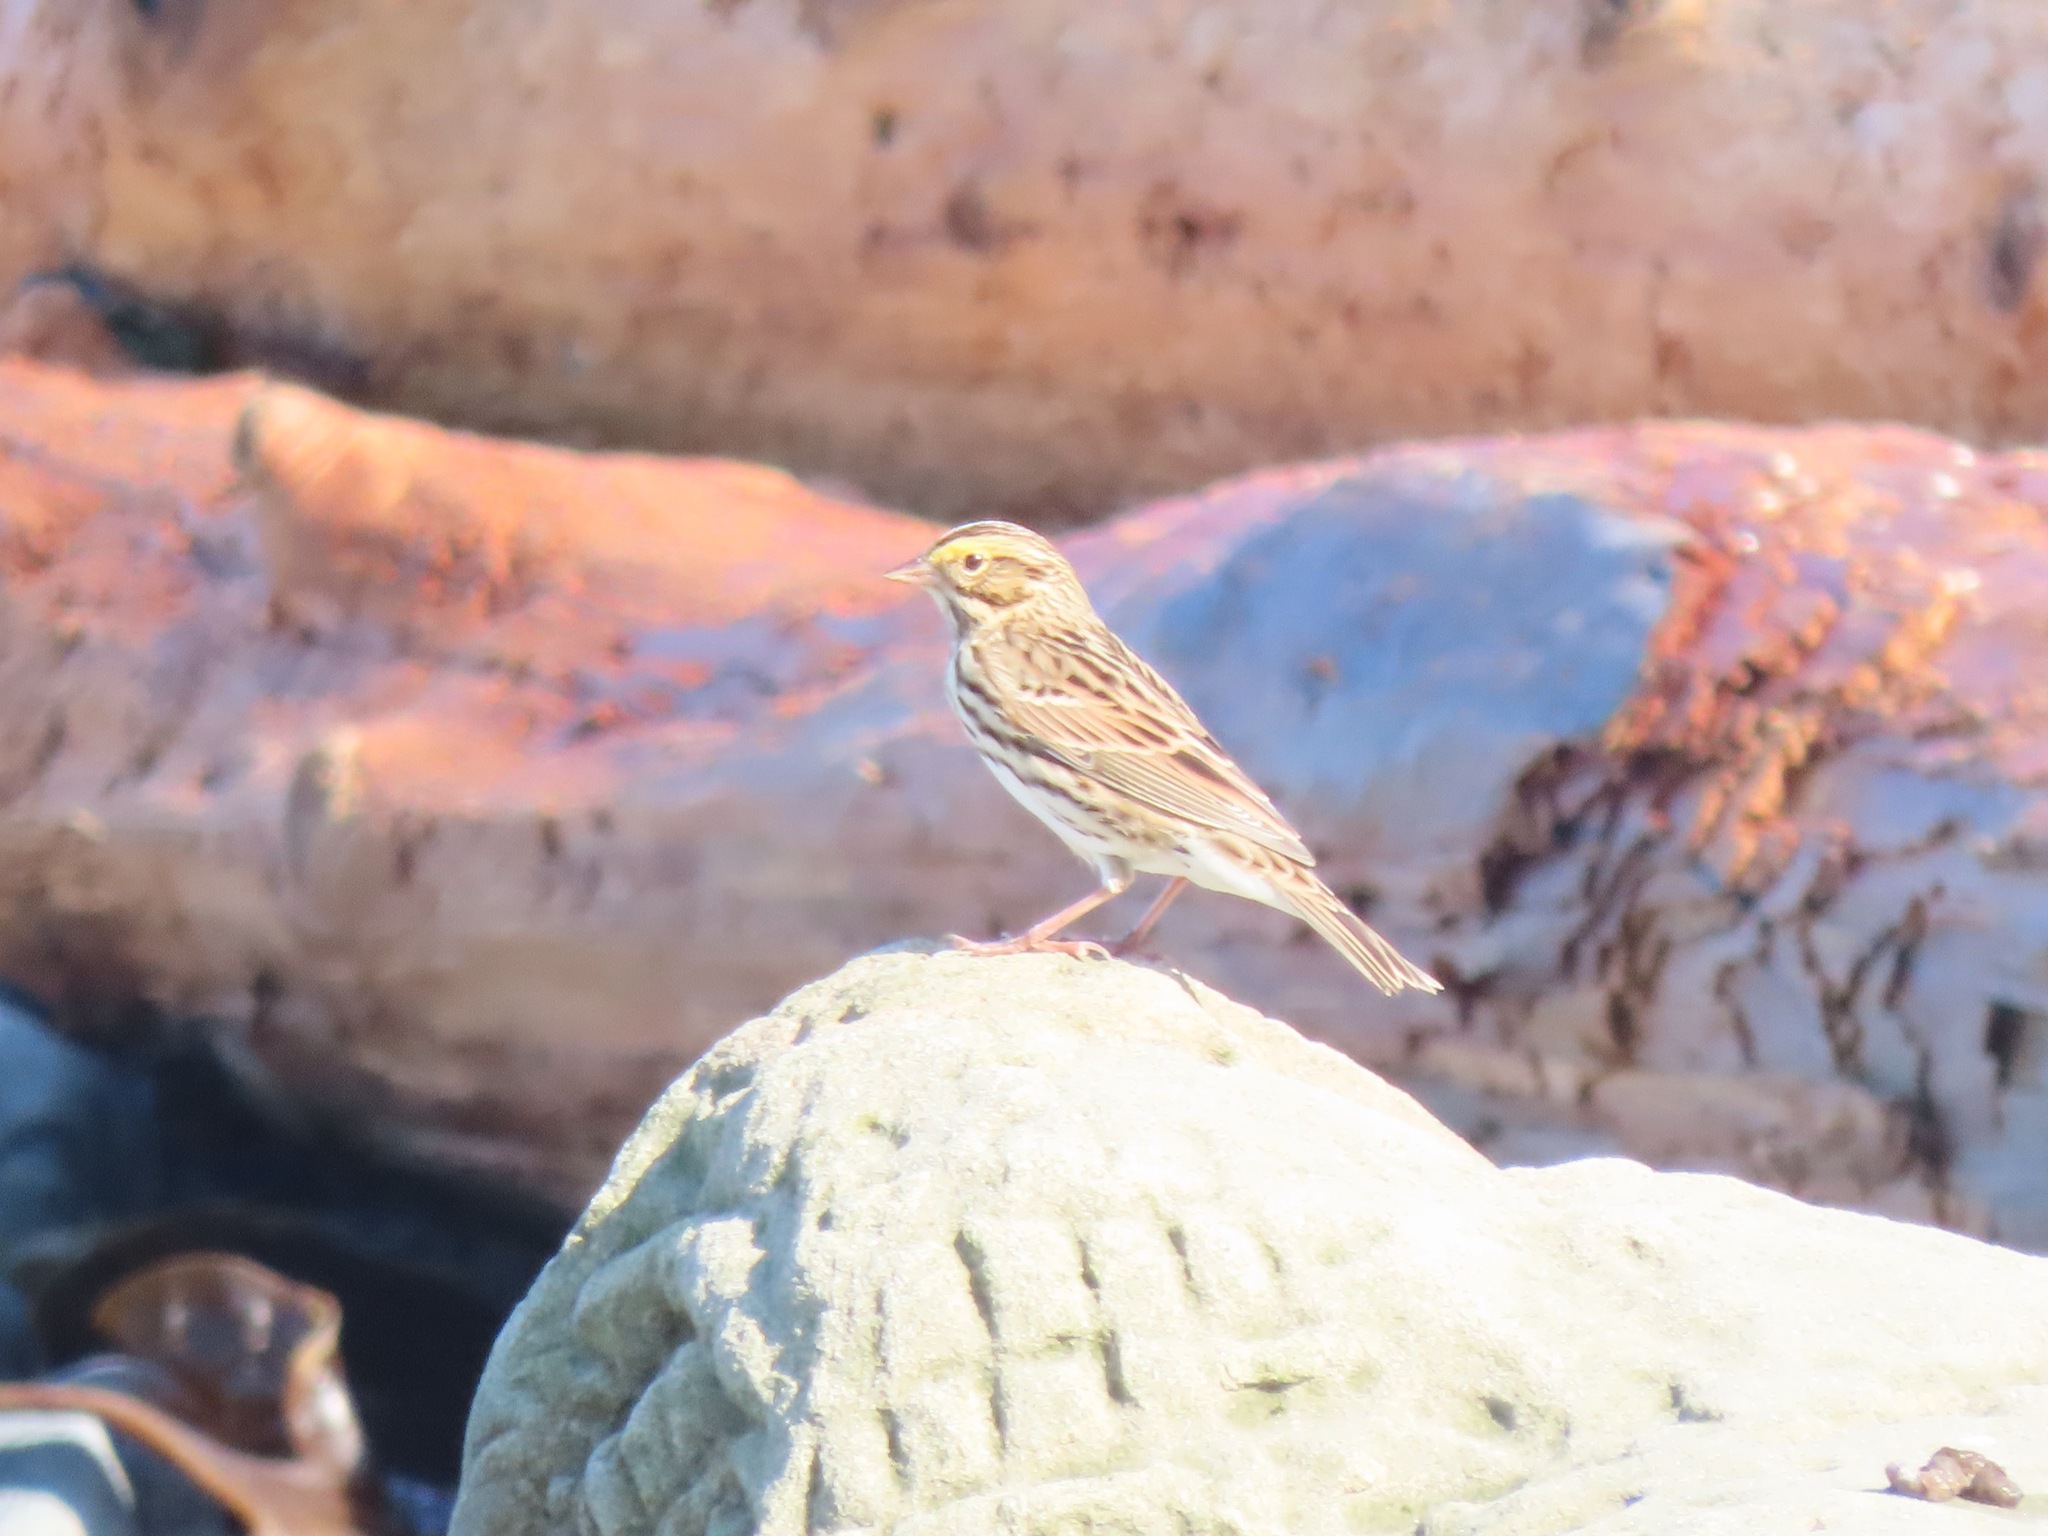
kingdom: Animalia
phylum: Chordata
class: Aves
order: Passeriformes
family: Passerellidae
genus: Passerculus
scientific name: Passerculus sandwichensis
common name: Savannah sparrow
